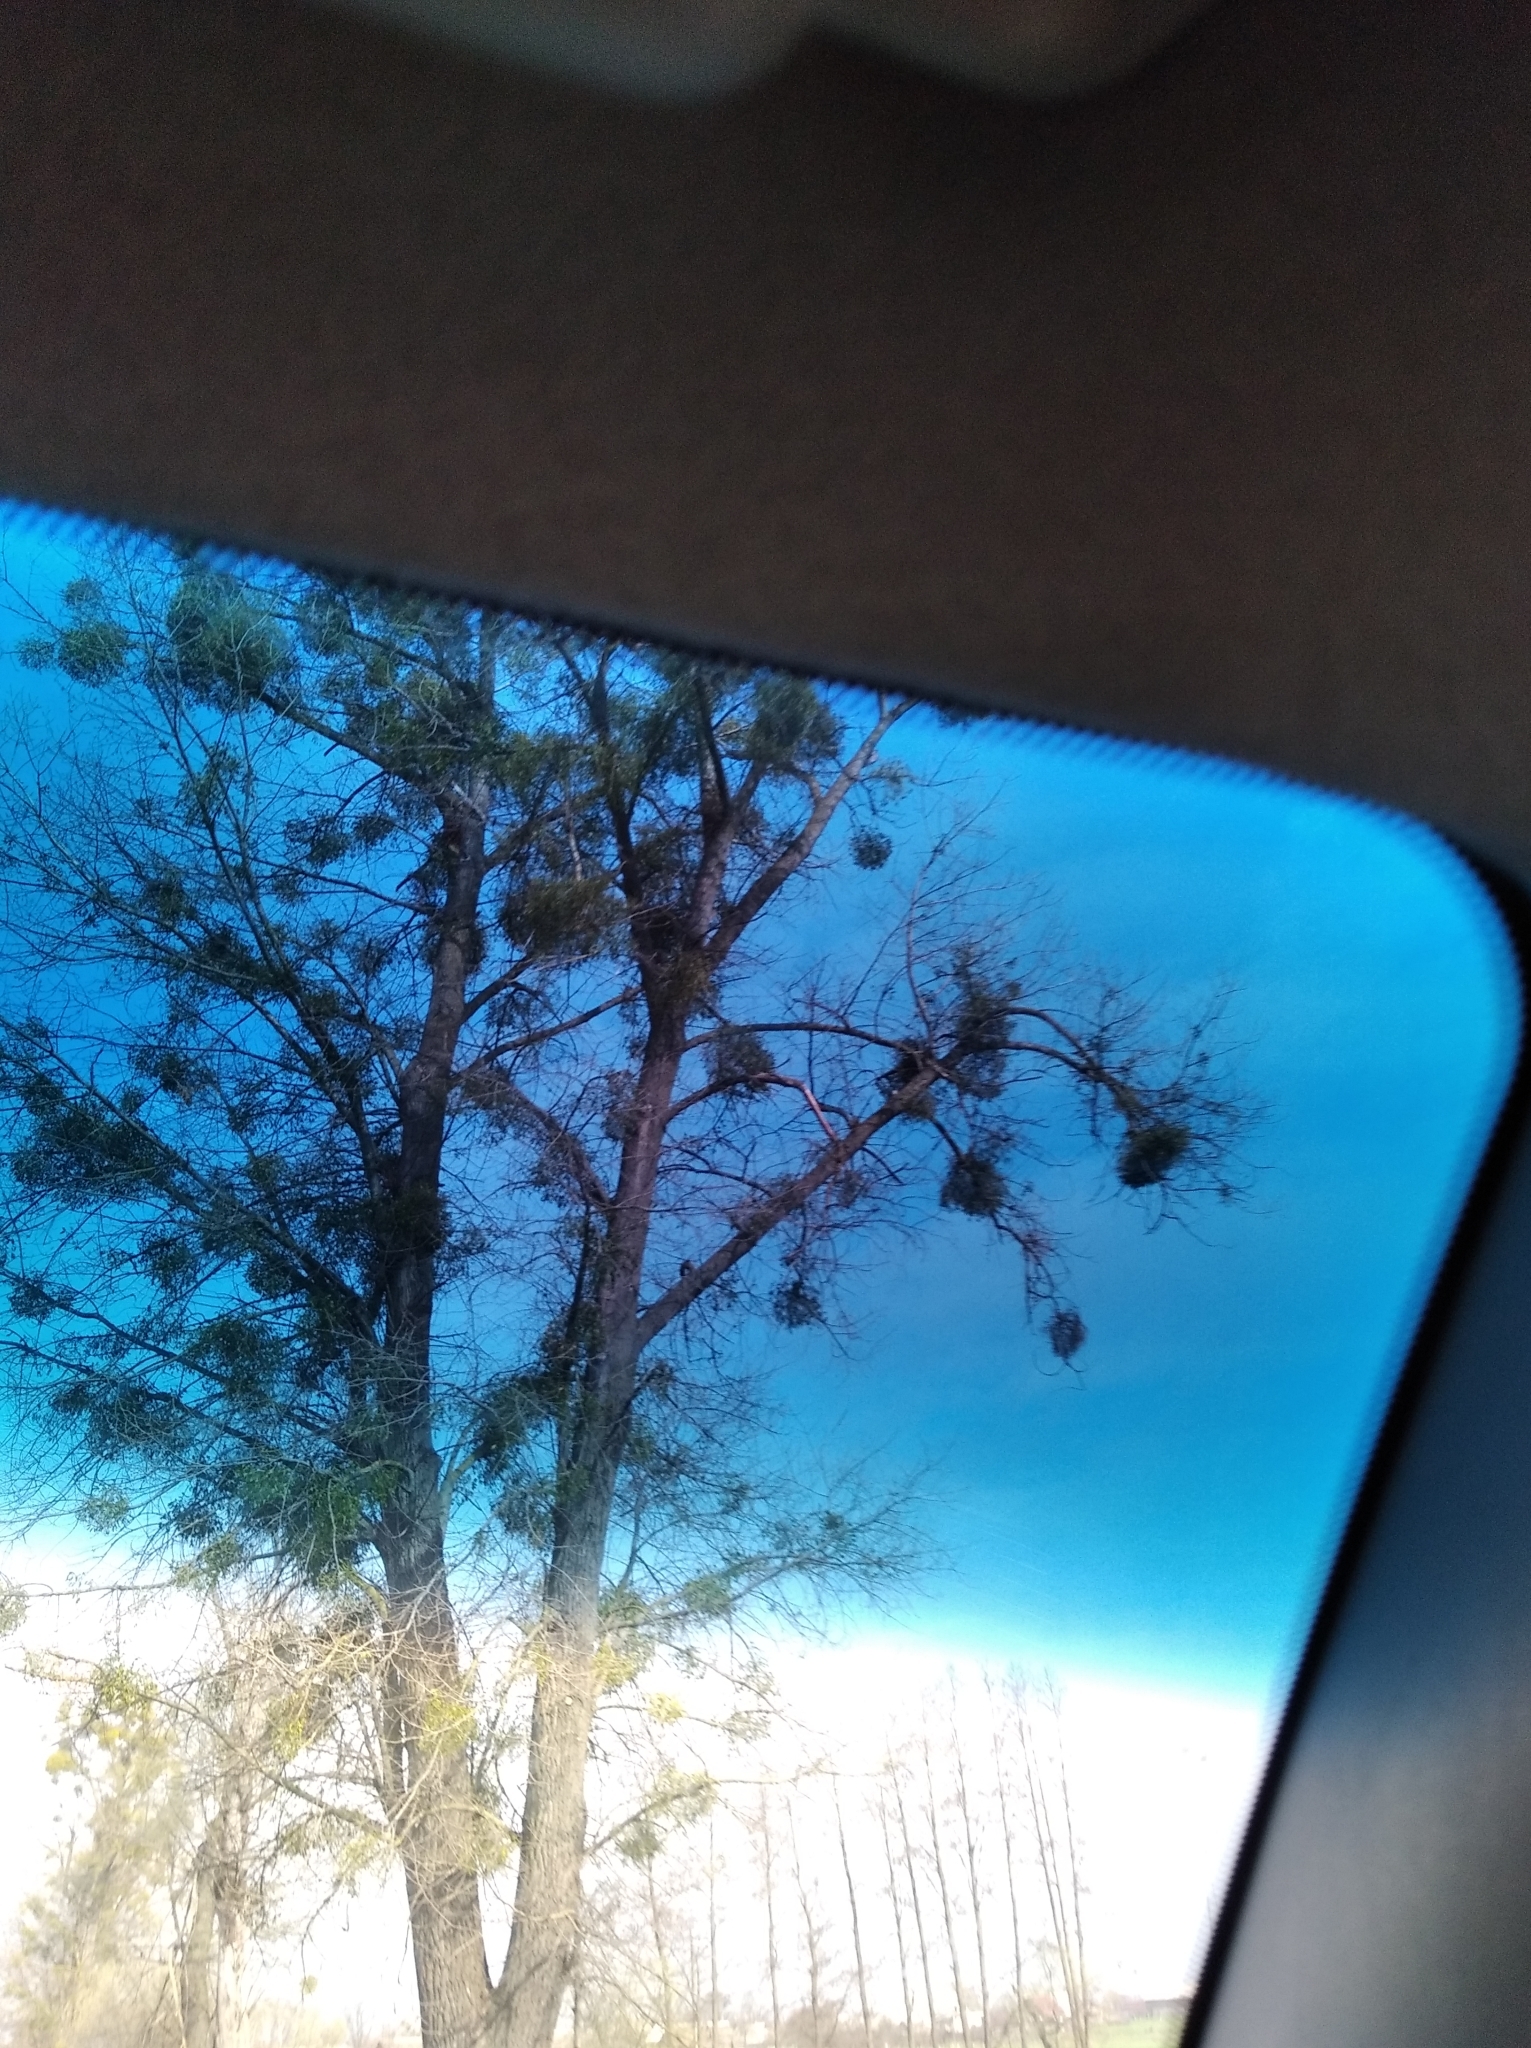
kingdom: Plantae
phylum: Tracheophyta
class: Magnoliopsida
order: Santalales
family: Viscaceae
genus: Viscum
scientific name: Viscum album
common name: Mistletoe
